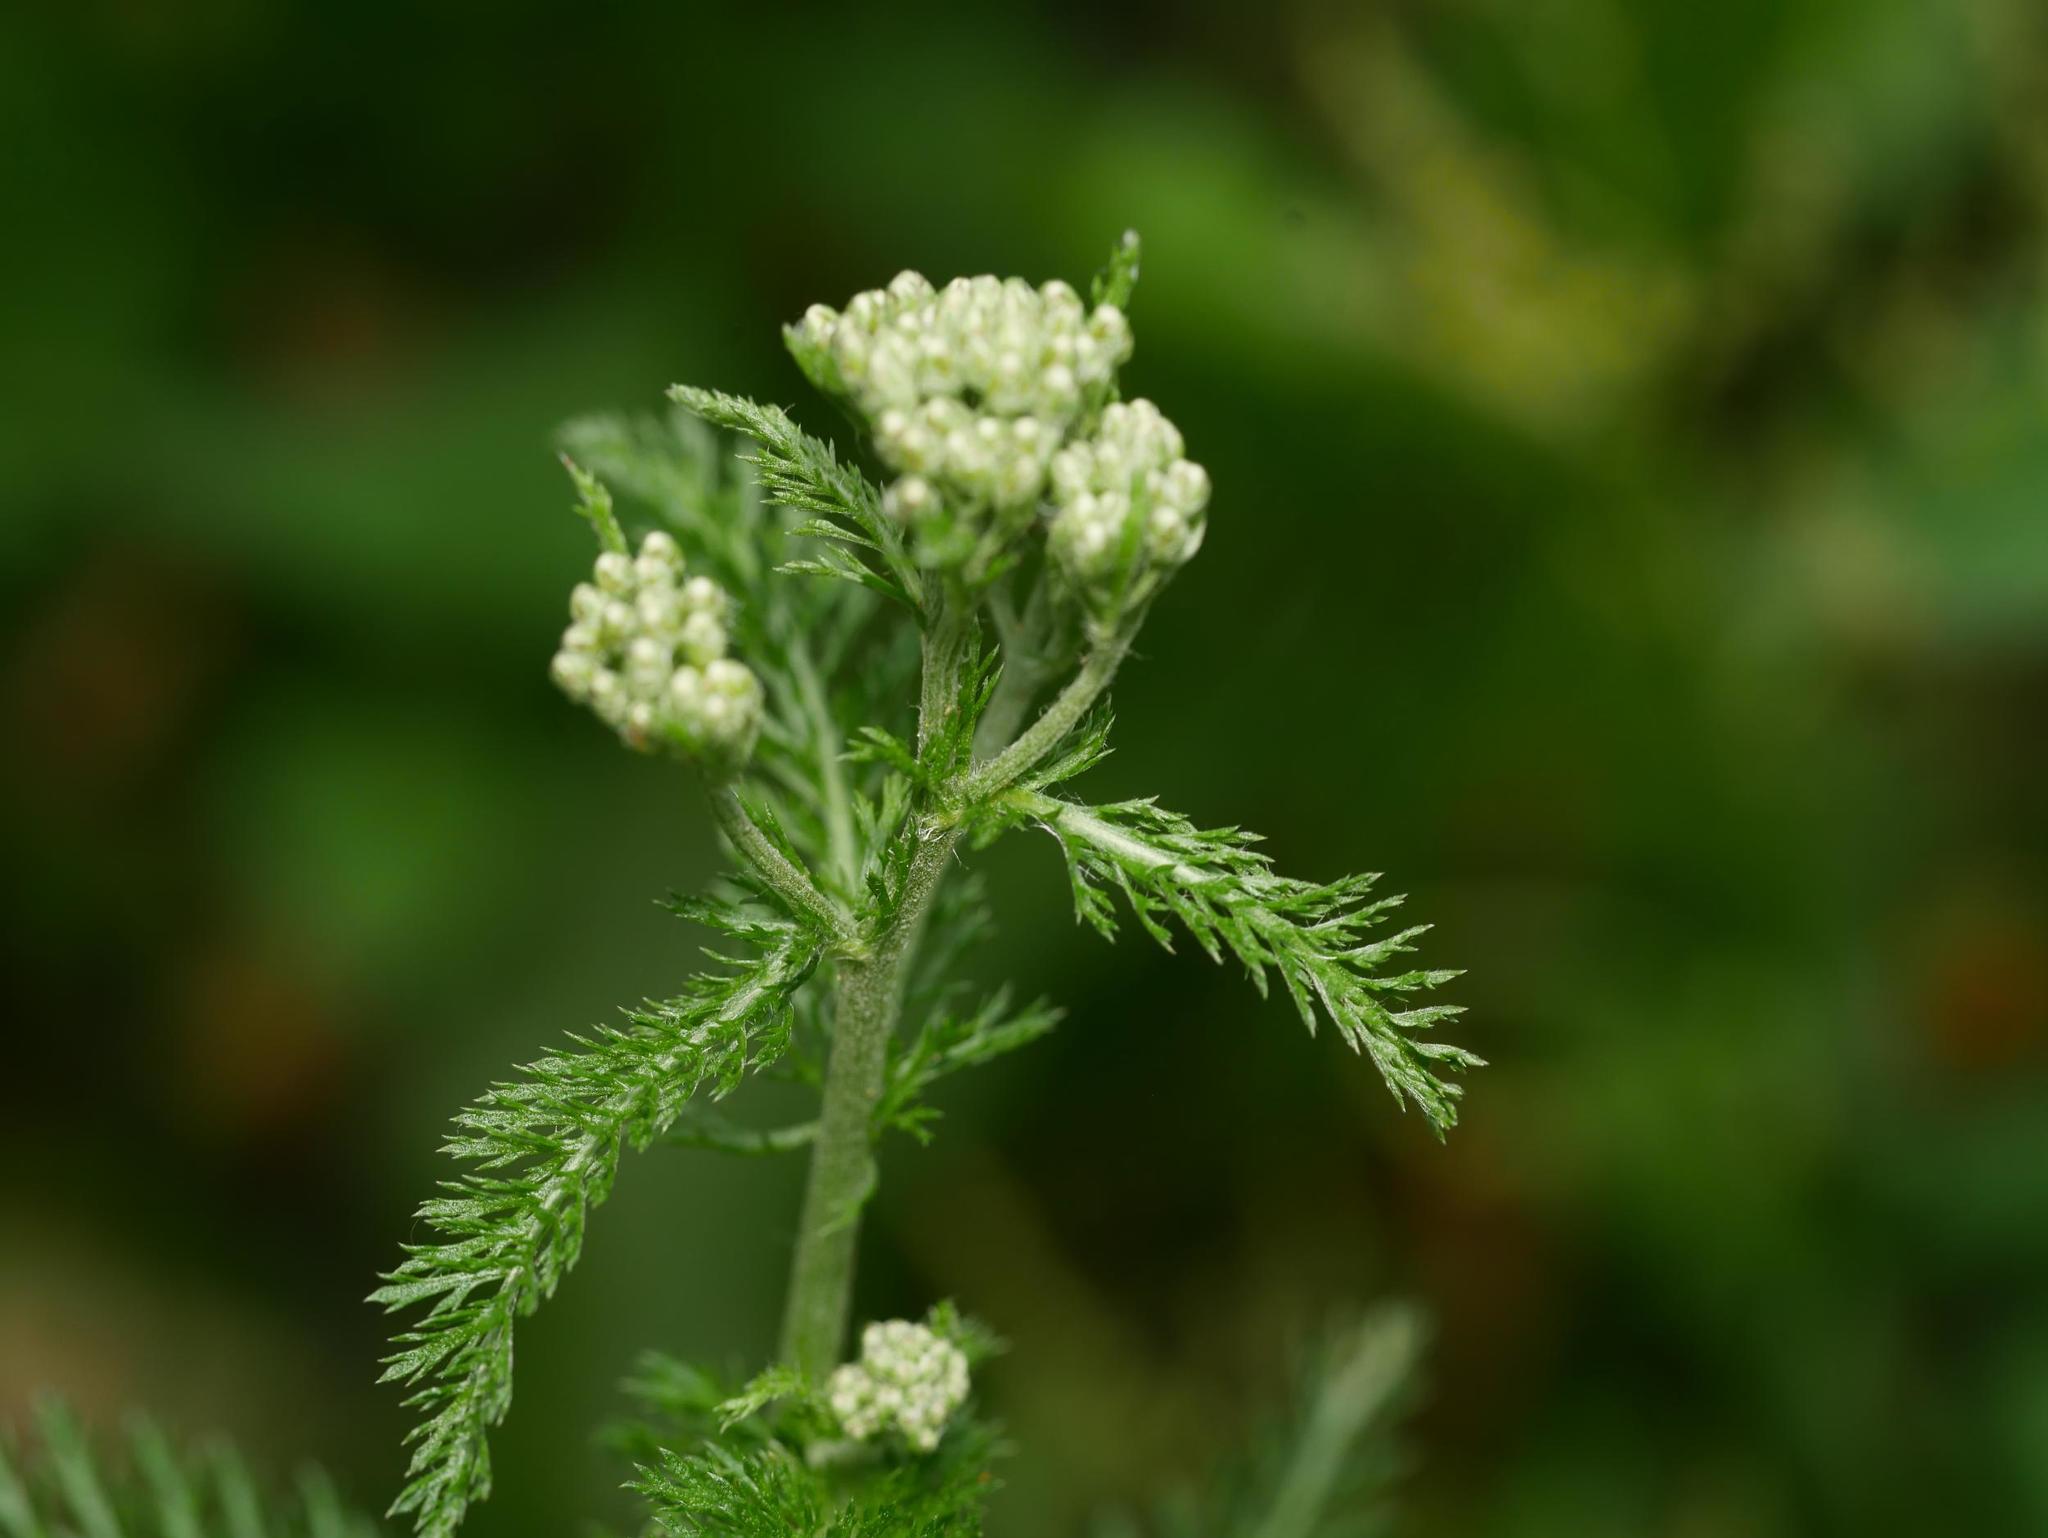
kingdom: Plantae
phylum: Tracheophyta
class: Magnoliopsida
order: Asterales
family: Asteraceae
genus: Achillea
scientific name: Achillea millefolium
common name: Yarrow
